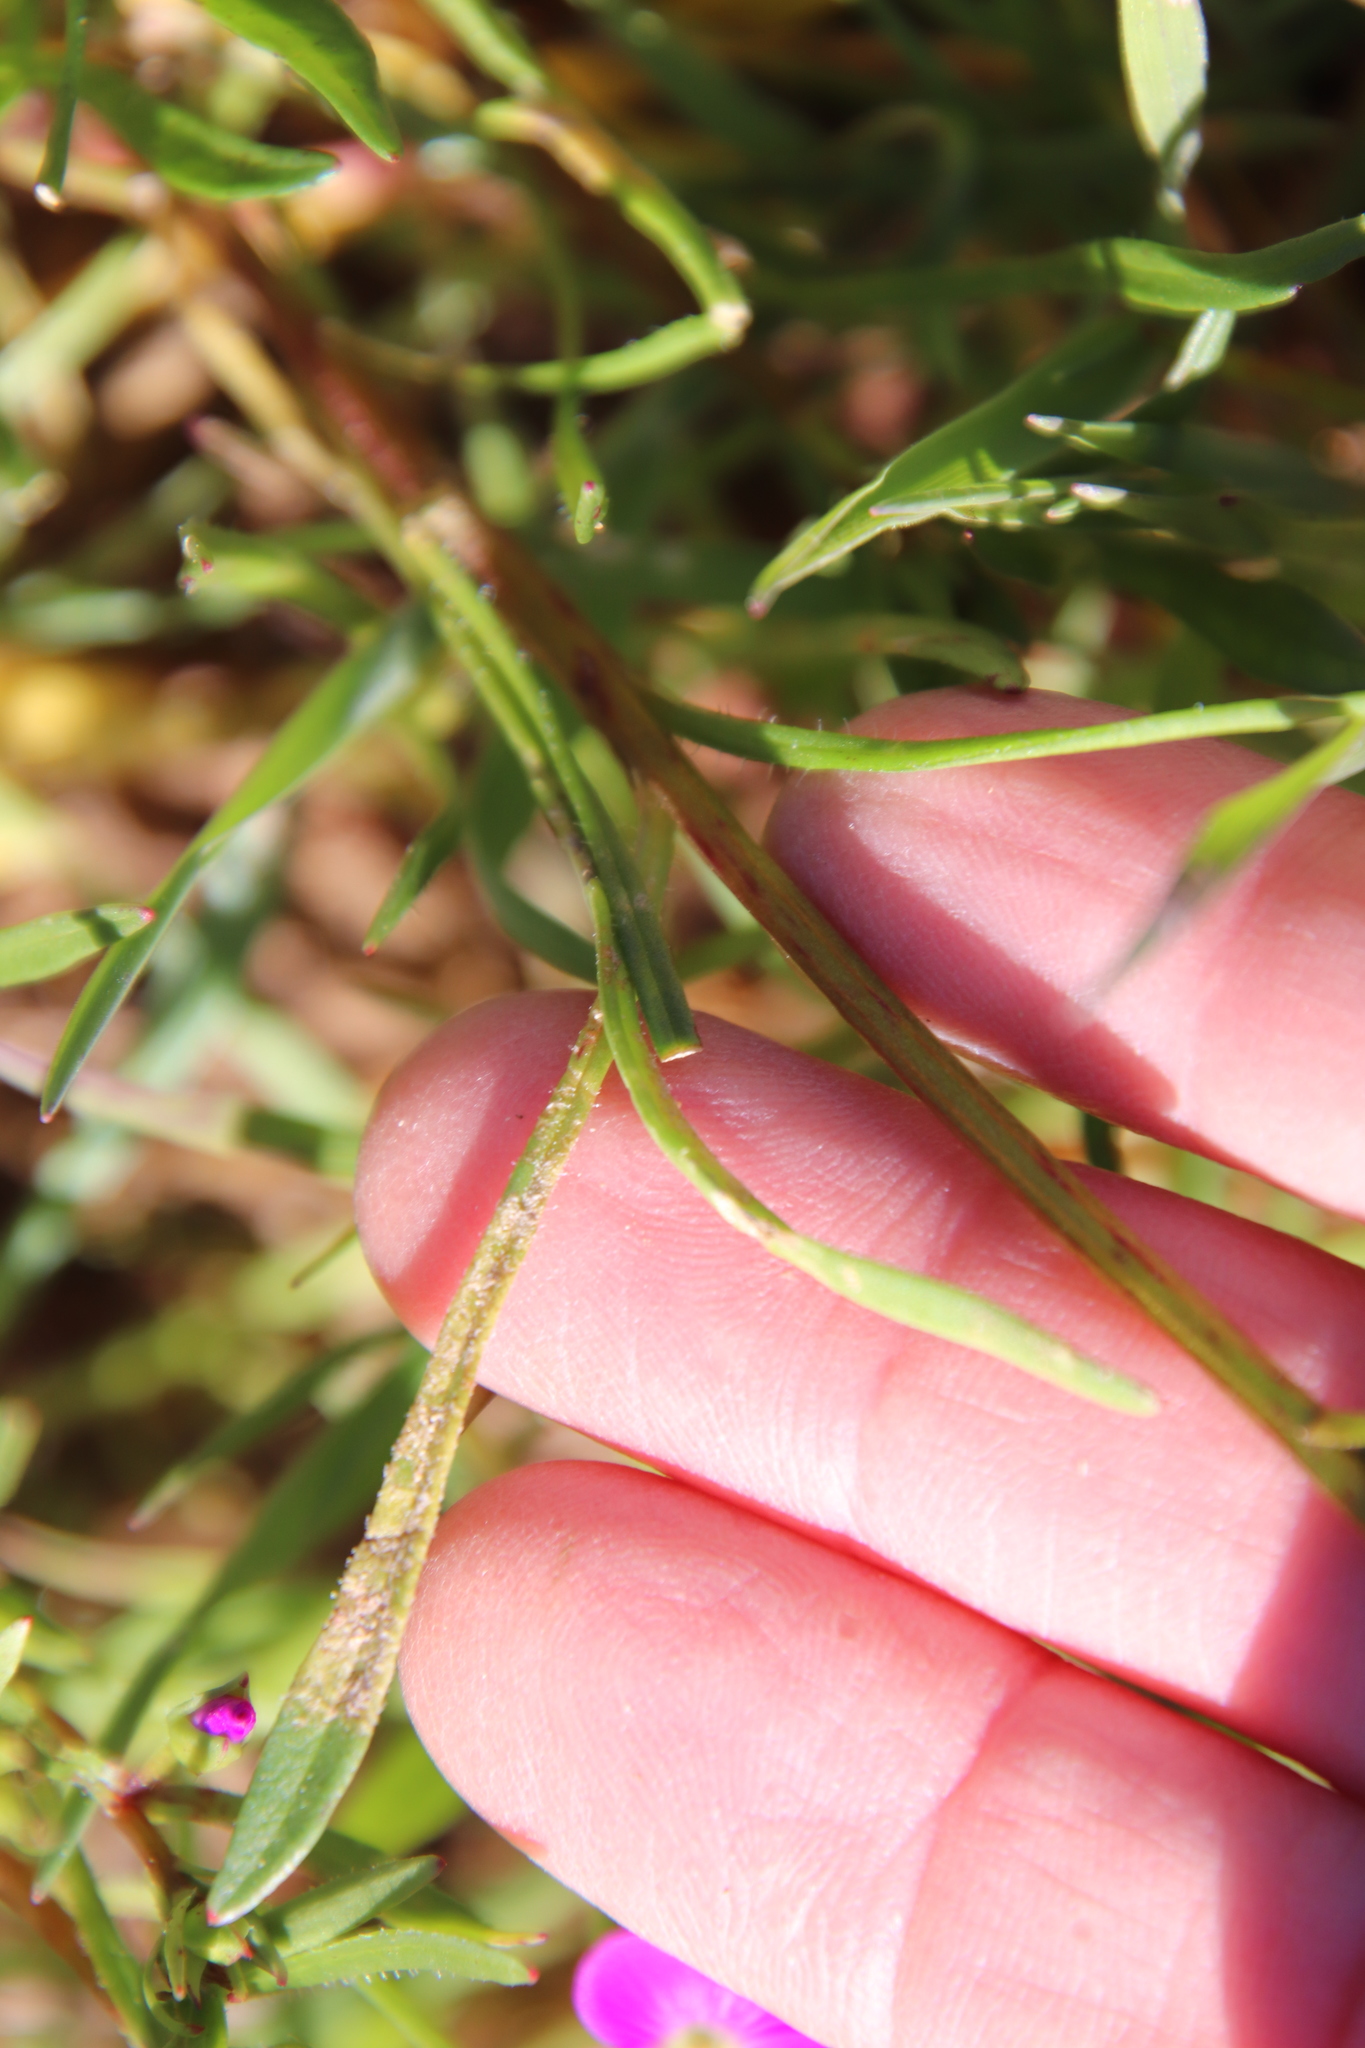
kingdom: Plantae
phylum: Tracheophyta
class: Magnoliopsida
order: Caryophyllales
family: Montiaceae
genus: Calandrinia
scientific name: Calandrinia menziesii
